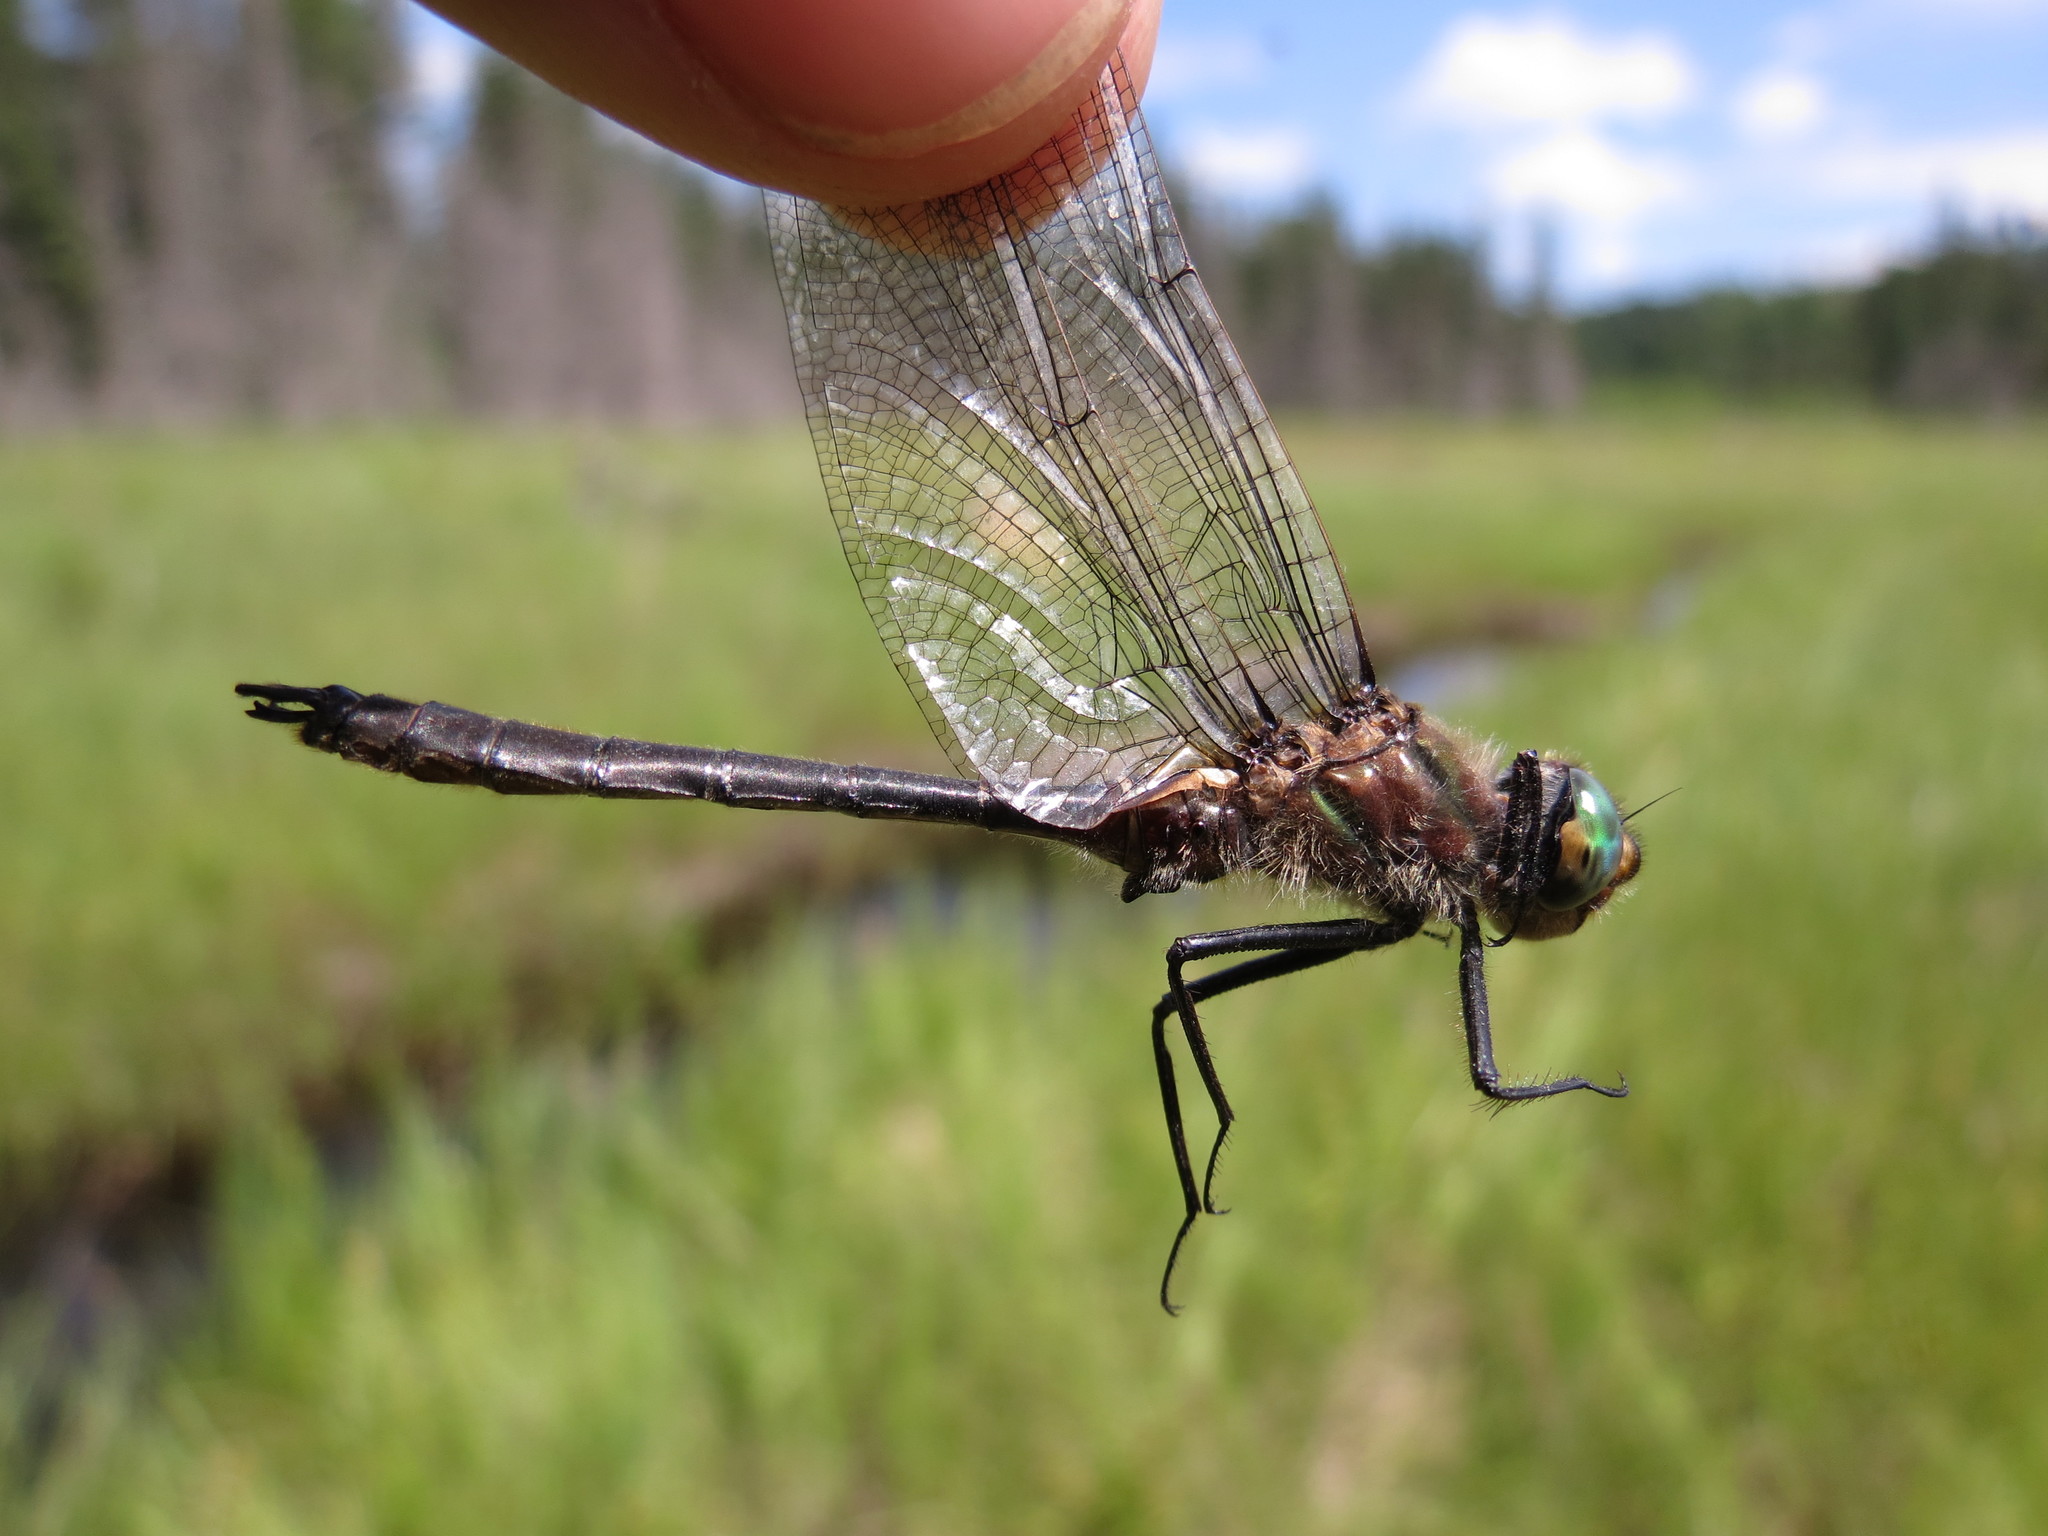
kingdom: Animalia
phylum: Arthropoda
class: Insecta
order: Odonata
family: Corduliidae
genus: Cordulia
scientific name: Cordulia shurtleffii
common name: American emerald
